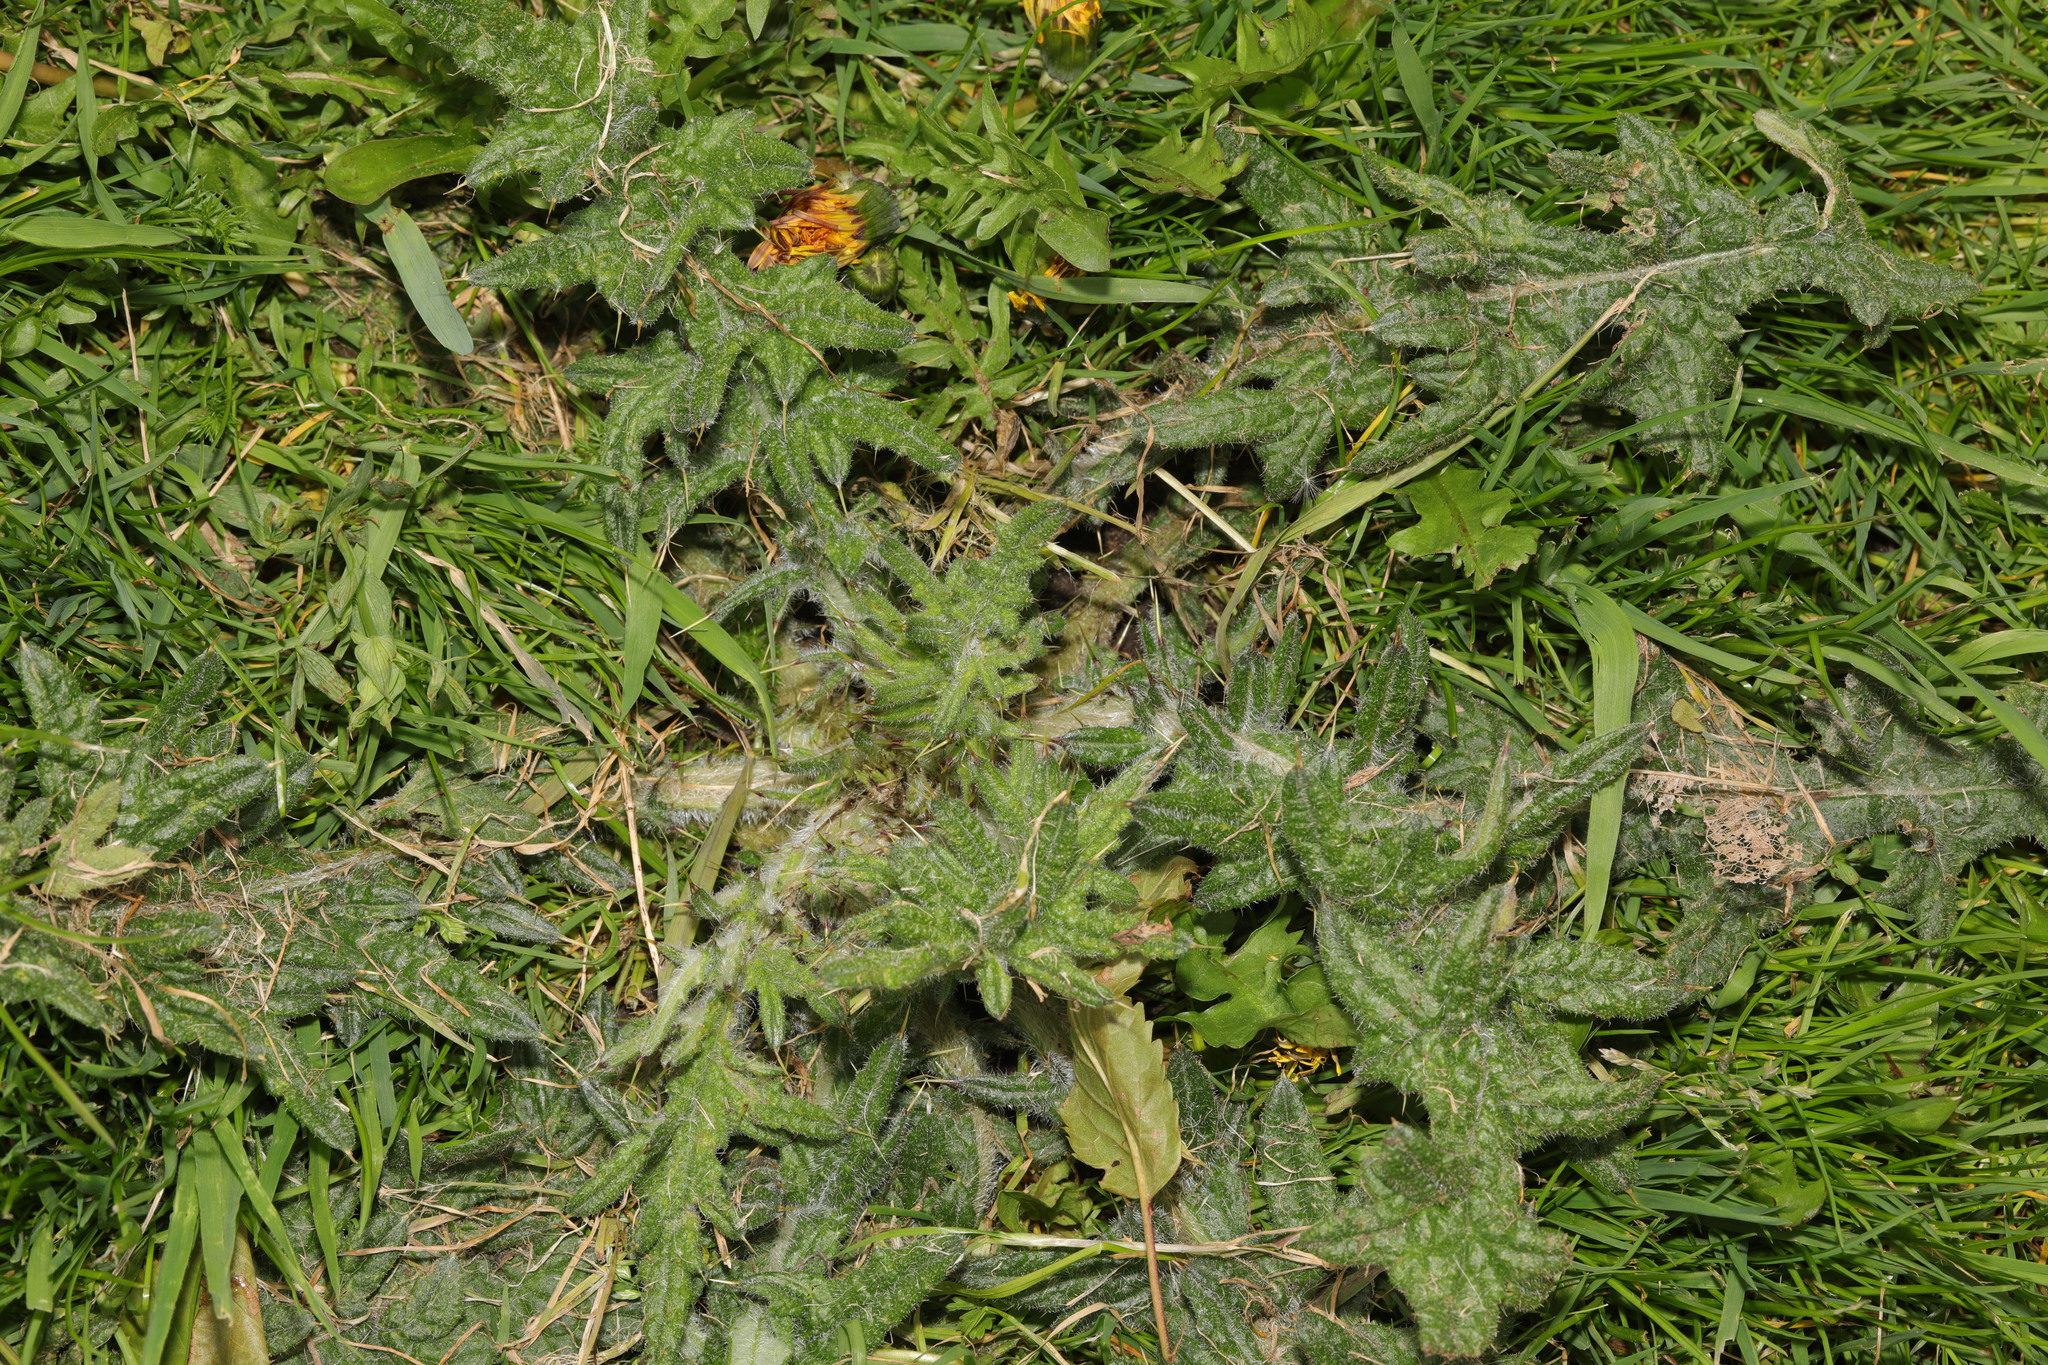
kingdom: Plantae
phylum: Tracheophyta
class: Magnoliopsida
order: Asterales
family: Asteraceae
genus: Cirsium
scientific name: Cirsium vulgare
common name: Bull thistle
